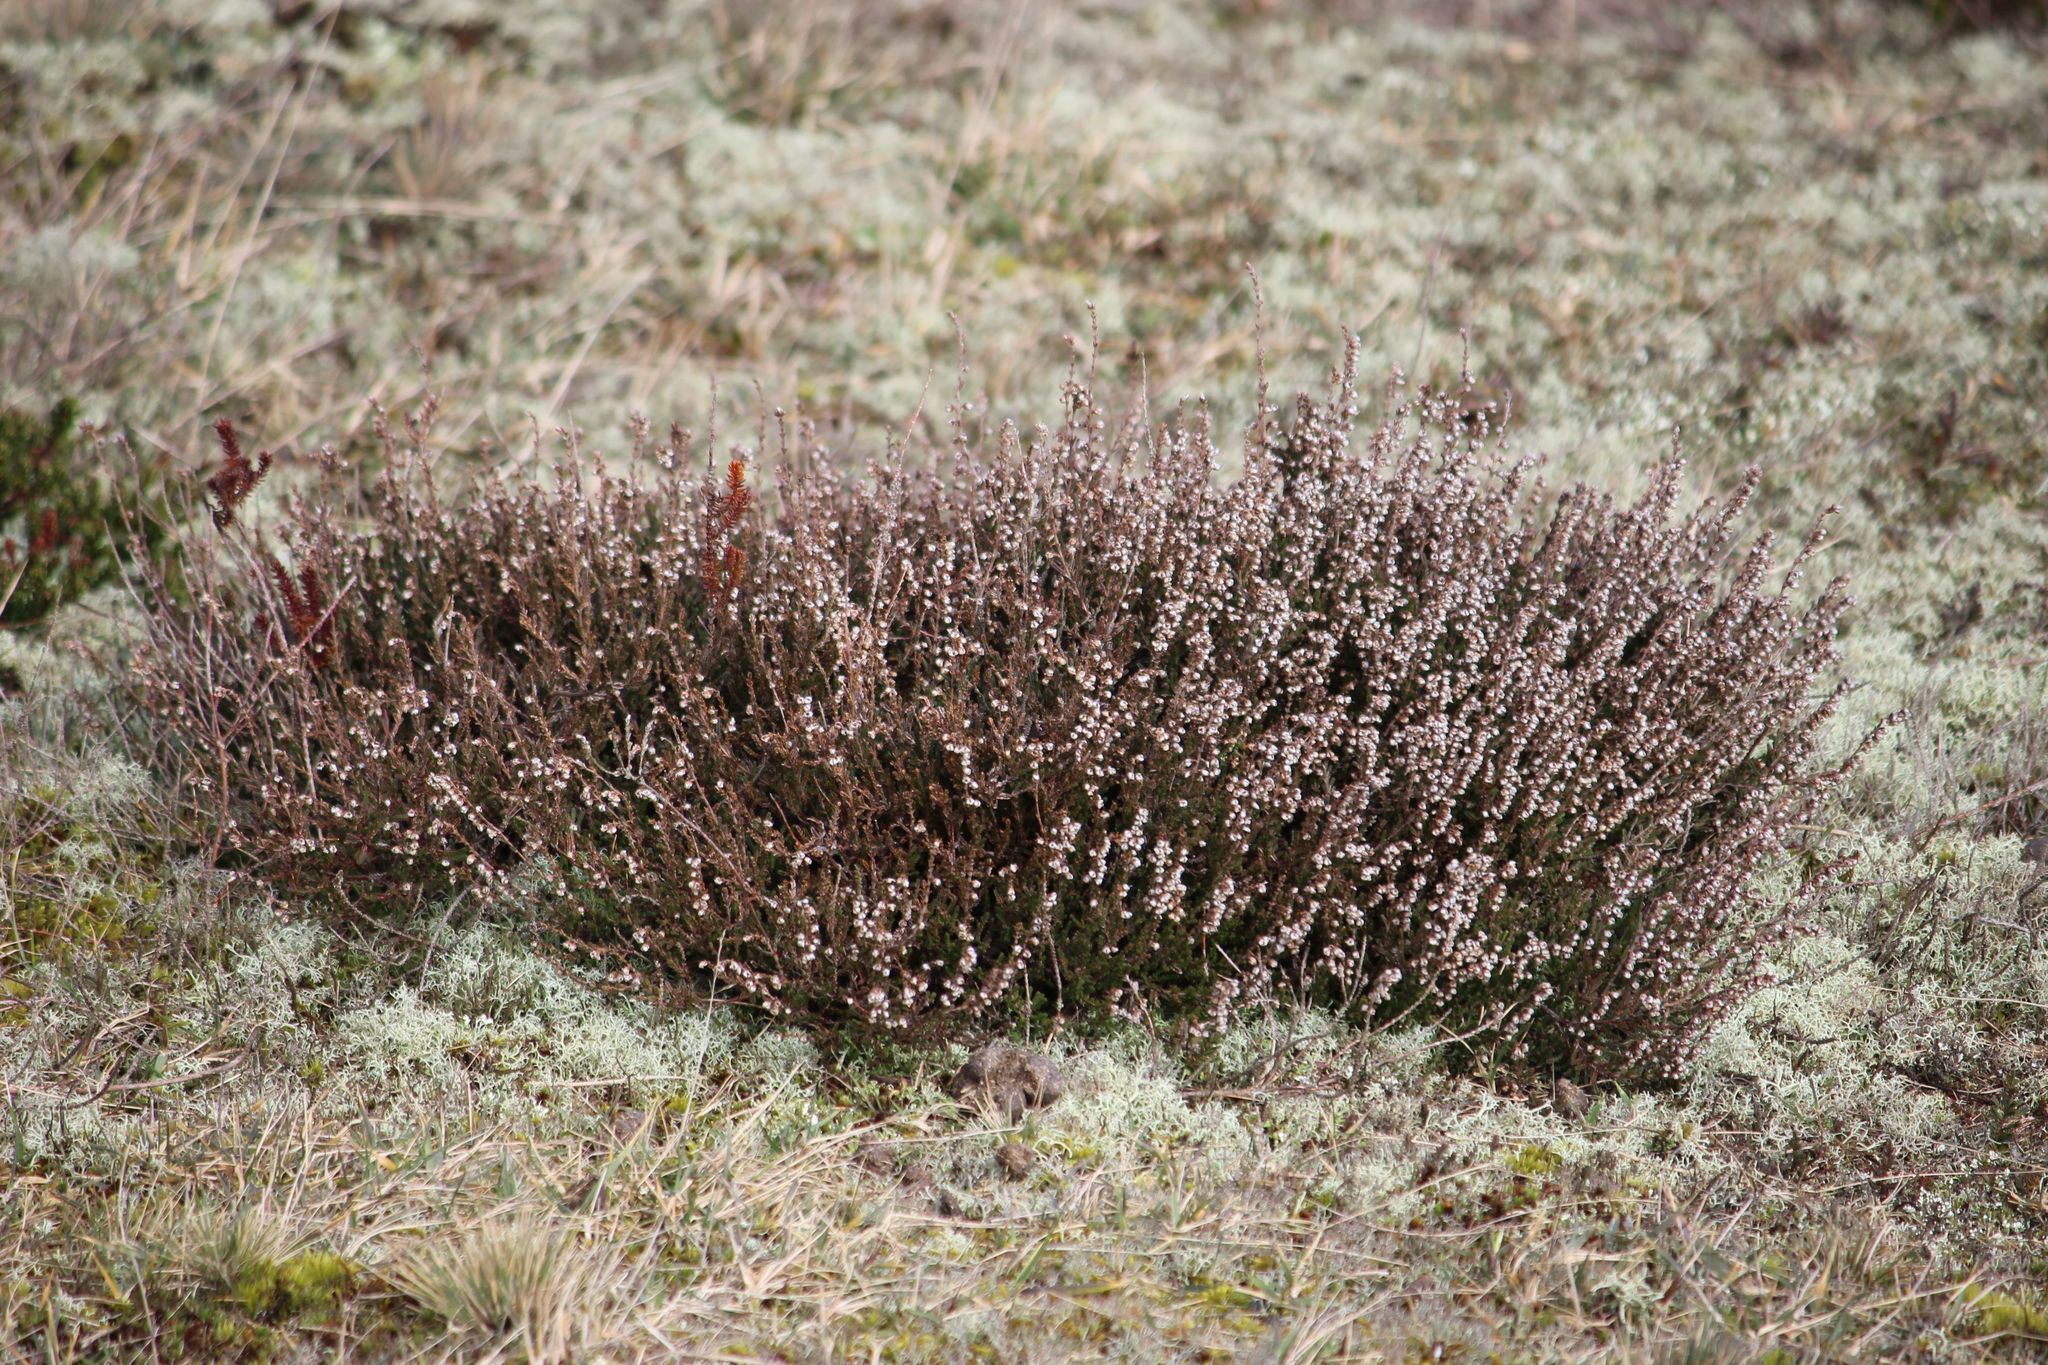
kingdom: Plantae
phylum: Tracheophyta
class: Magnoliopsida
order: Ericales
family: Ericaceae
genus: Calluna
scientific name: Calluna vulgaris
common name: Heather
